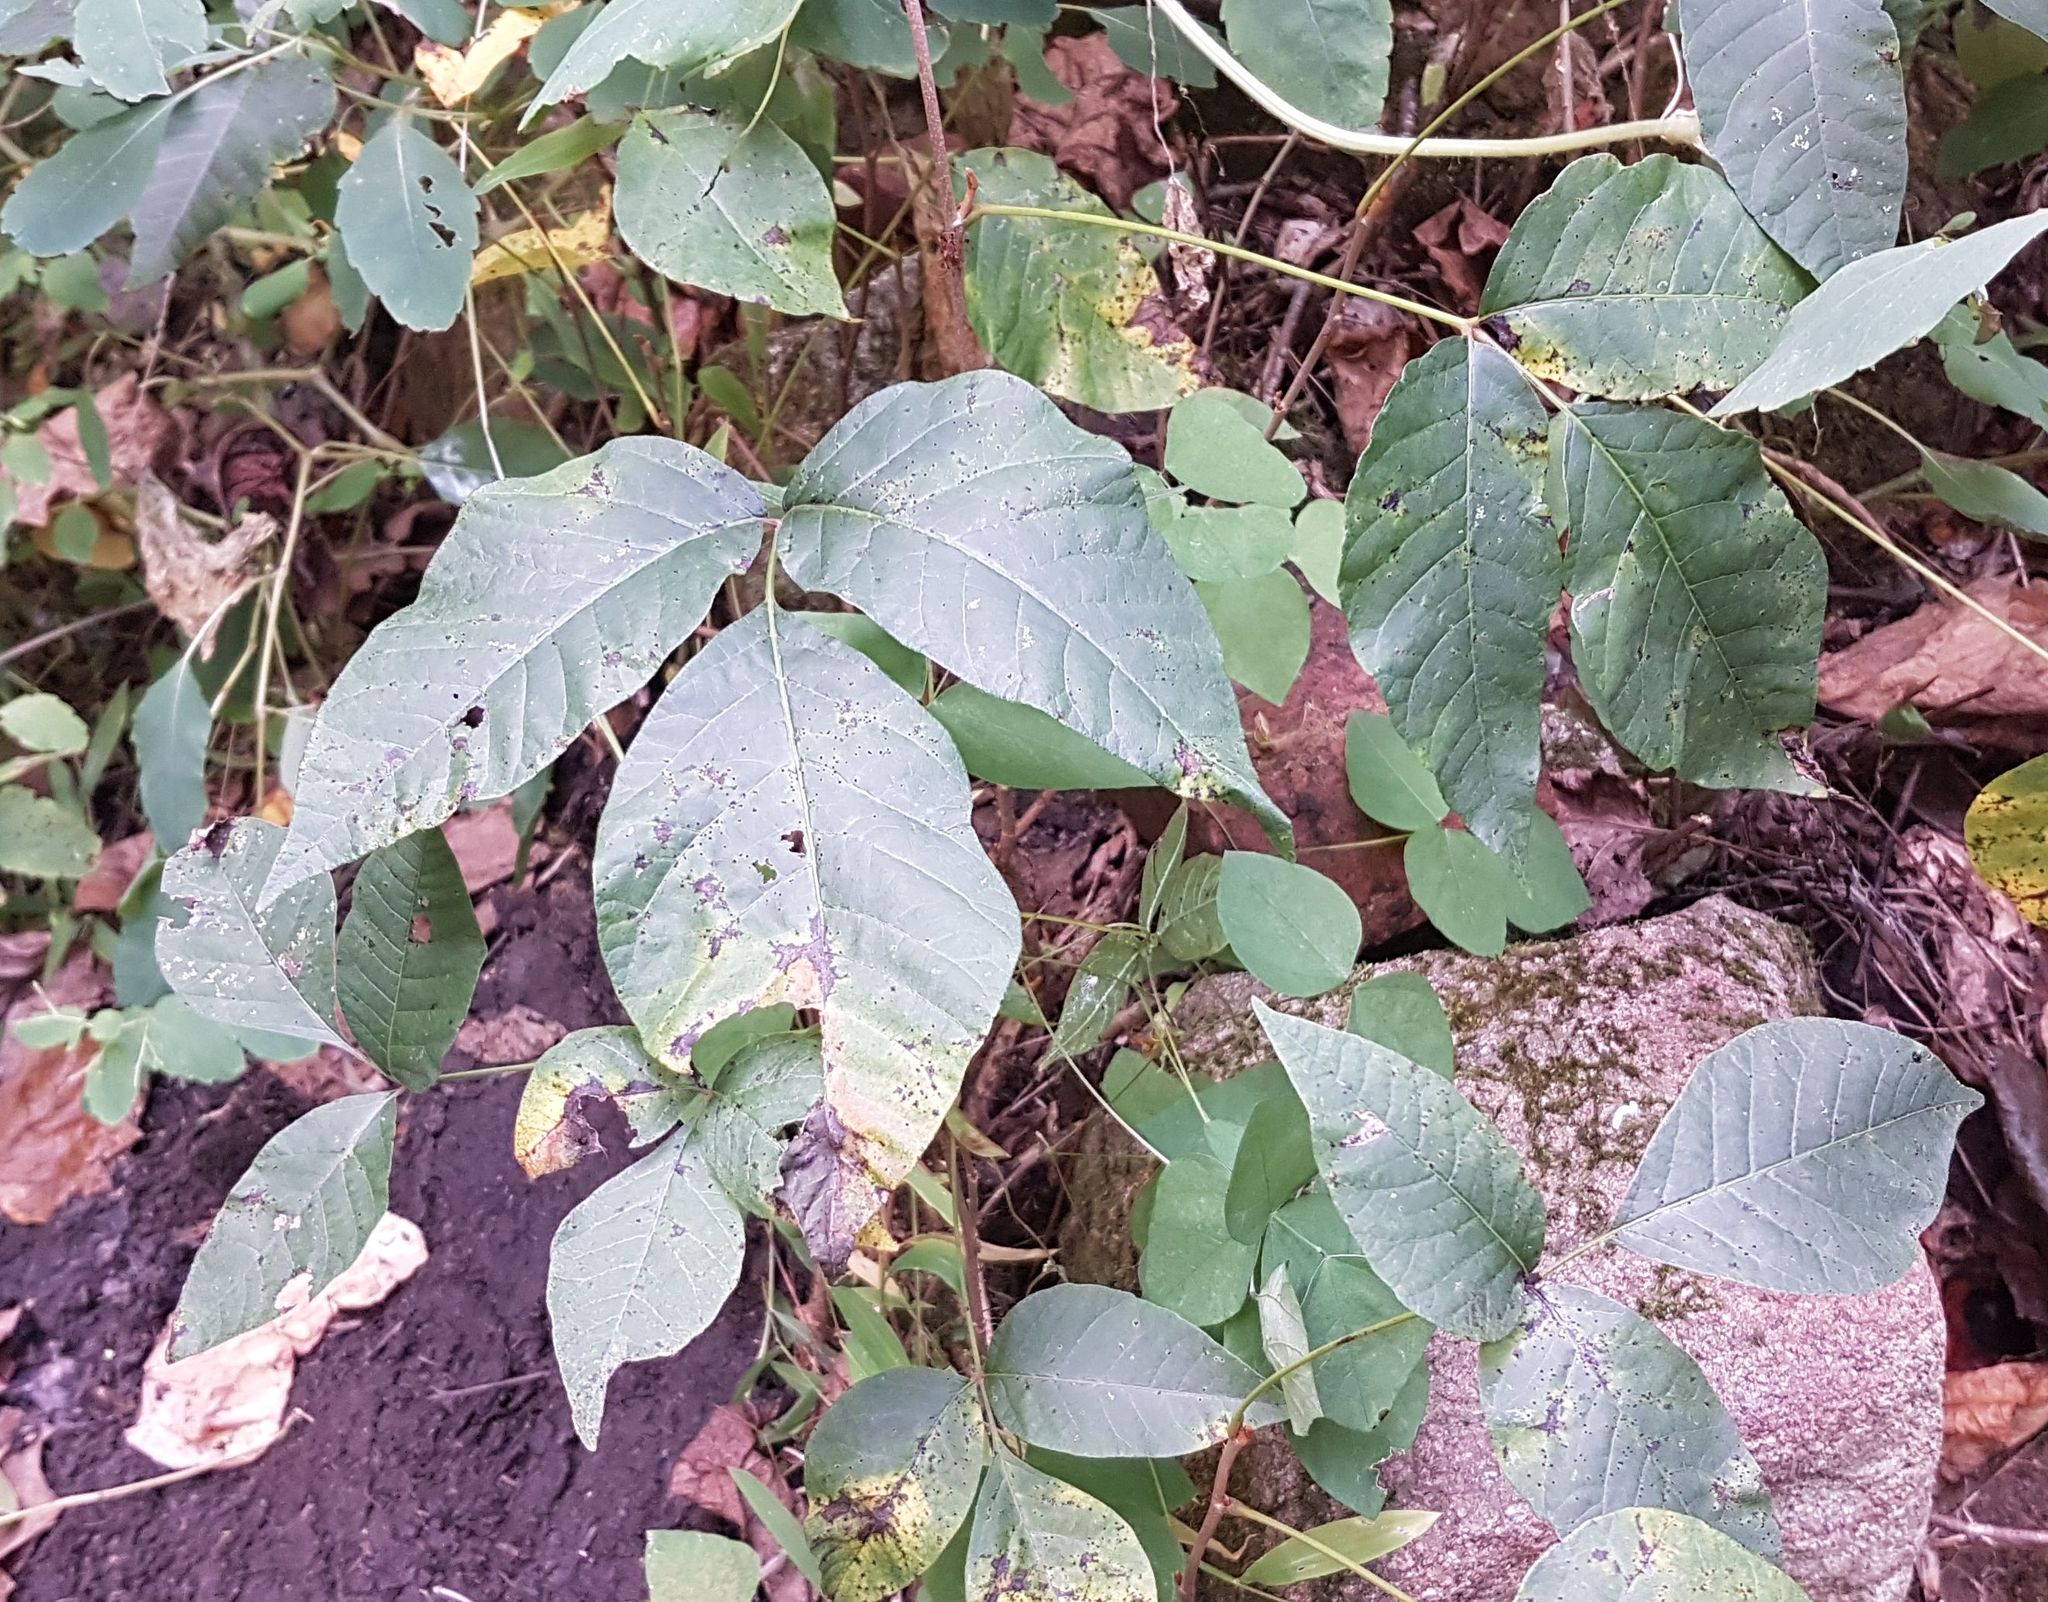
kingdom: Plantae
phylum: Tracheophyta
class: Magnoliopsida
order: Sapindales
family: Anacardiaceae
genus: Toxicodendron
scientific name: Toxicodendron radicans
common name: Poison ivy
